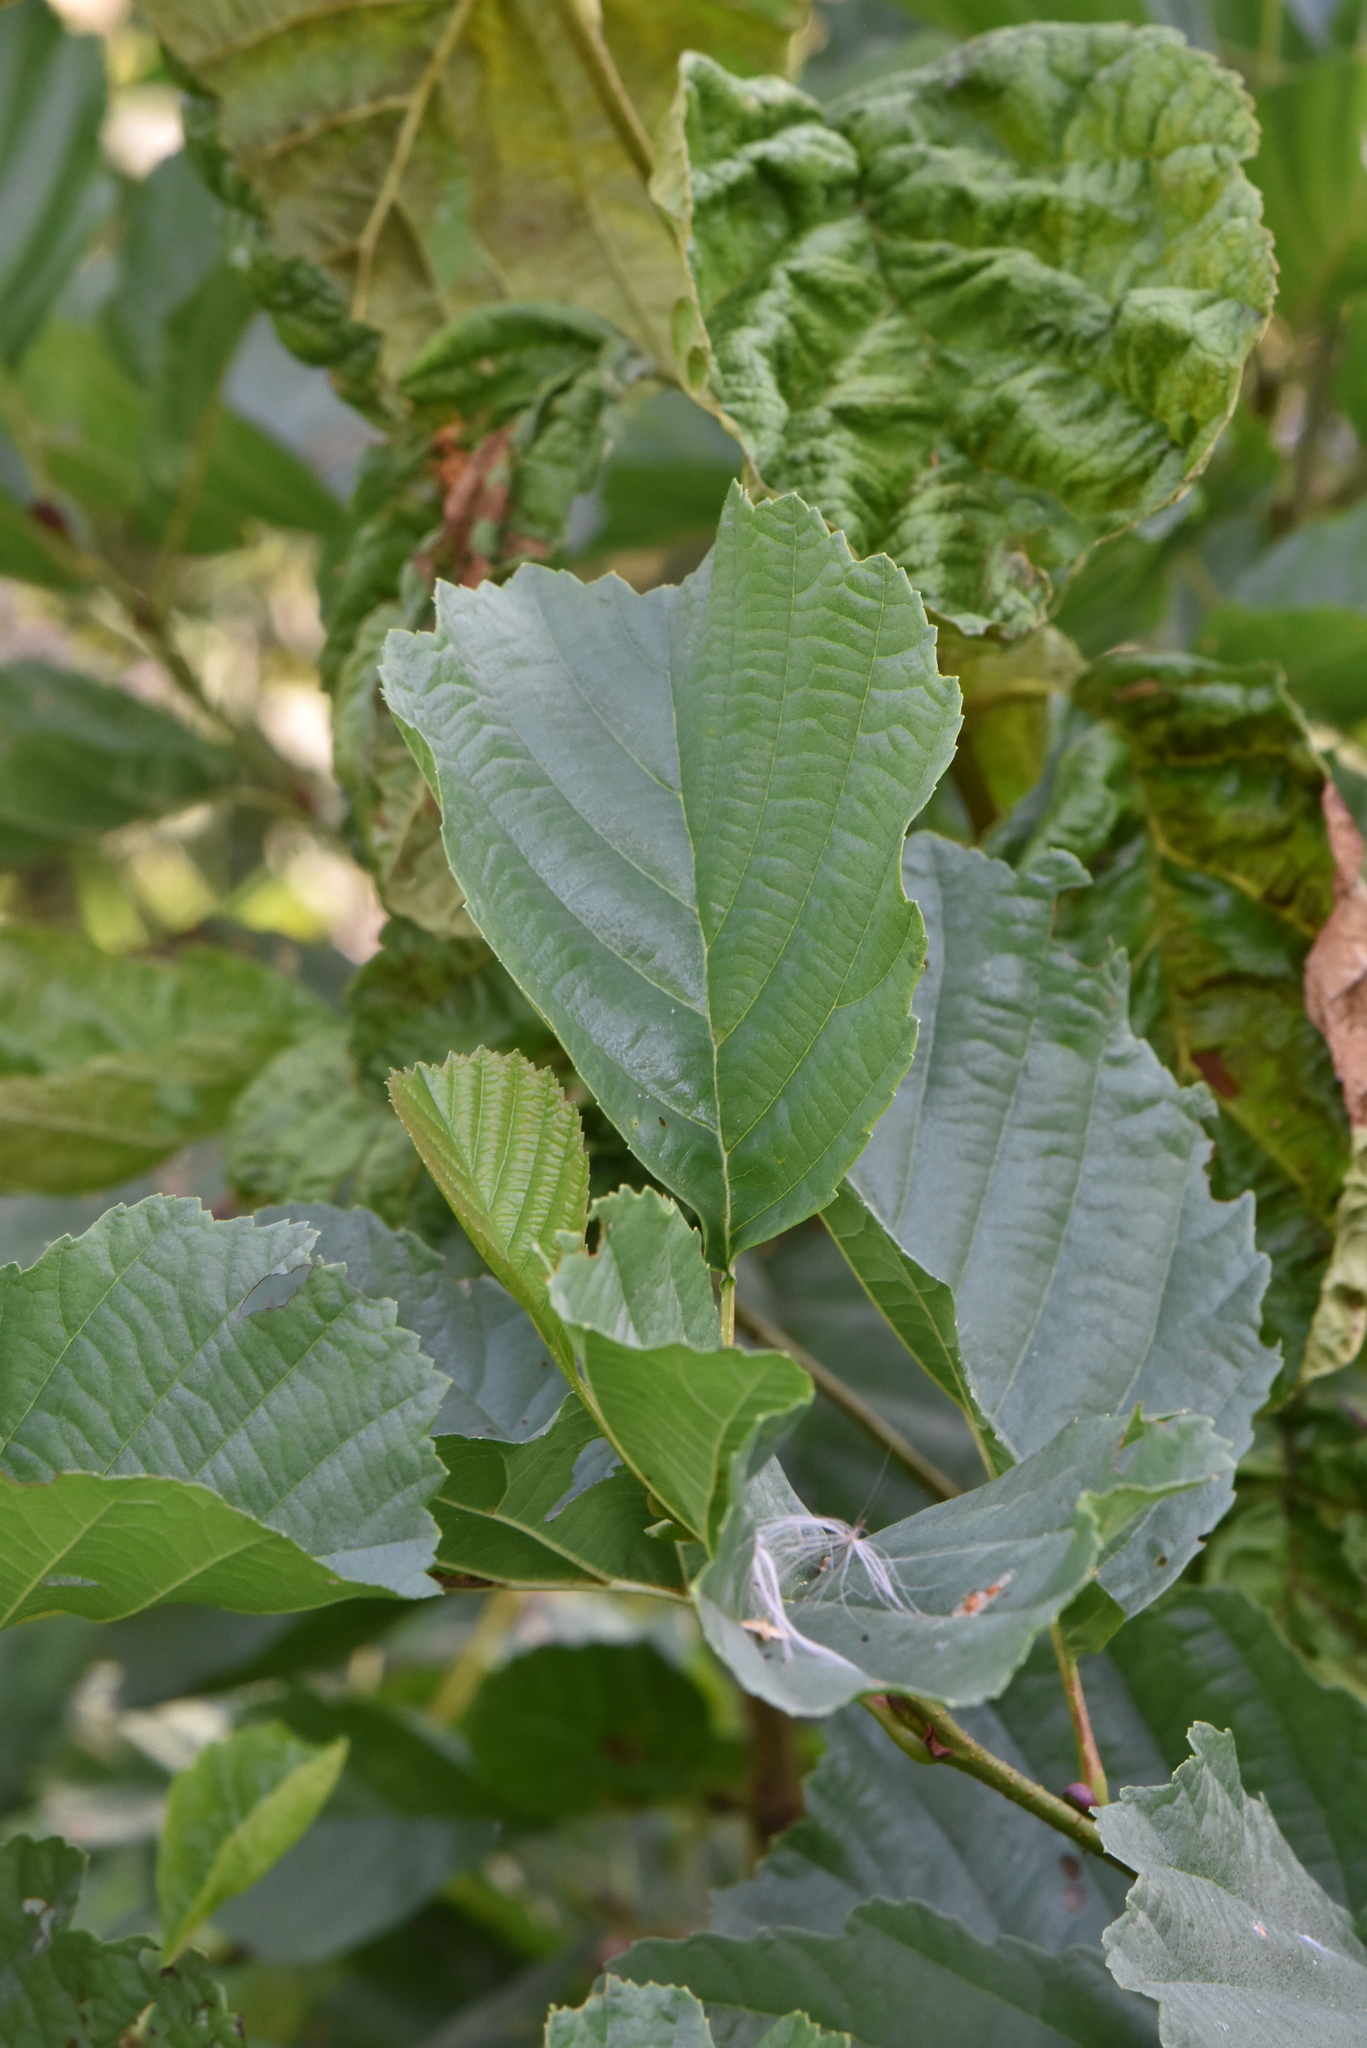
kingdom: Plantae
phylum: Tracheophyta
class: Magnoliopsida
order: Fagales
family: Betulaceae
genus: Alnus
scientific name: Alnus glutinosa
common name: Black alder
